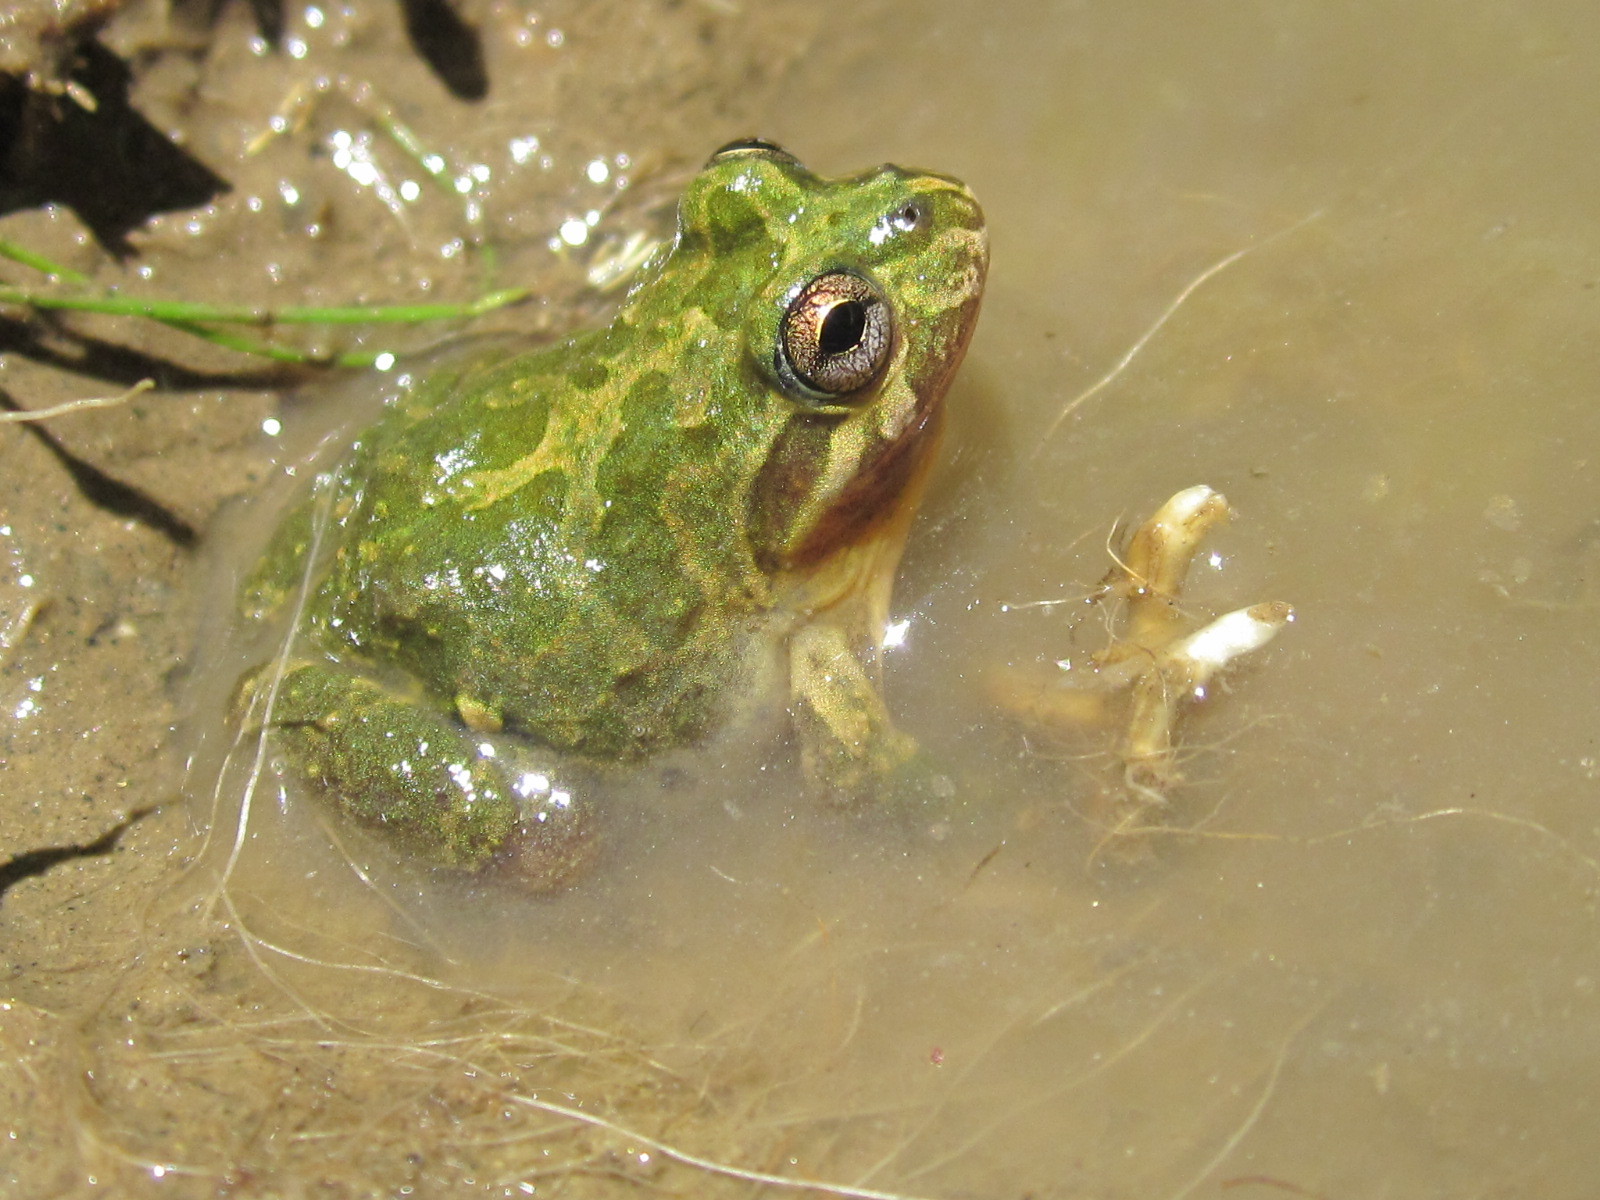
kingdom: Animalia
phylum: Chordata
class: Amphibia
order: Anura
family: Leptodactylidae
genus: Pleurodema
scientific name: Pleurodema thaul
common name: Chile four-eyed frog
